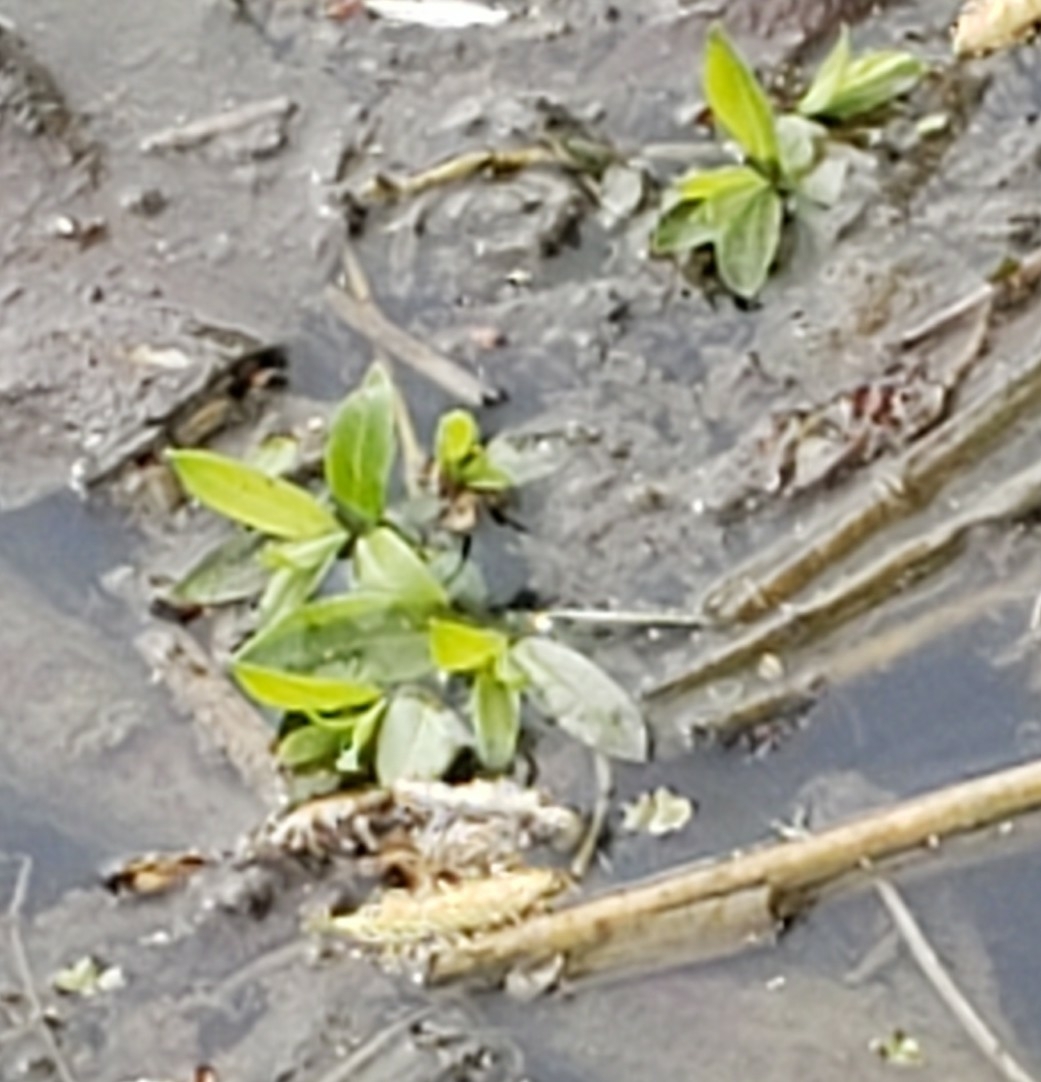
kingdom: Plantae
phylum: Tracheophyta
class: Magnoliopsida
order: Myrtales
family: Onagraceae
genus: Ludwigia
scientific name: Ludwigia palustris
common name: Hampshire-purslane
